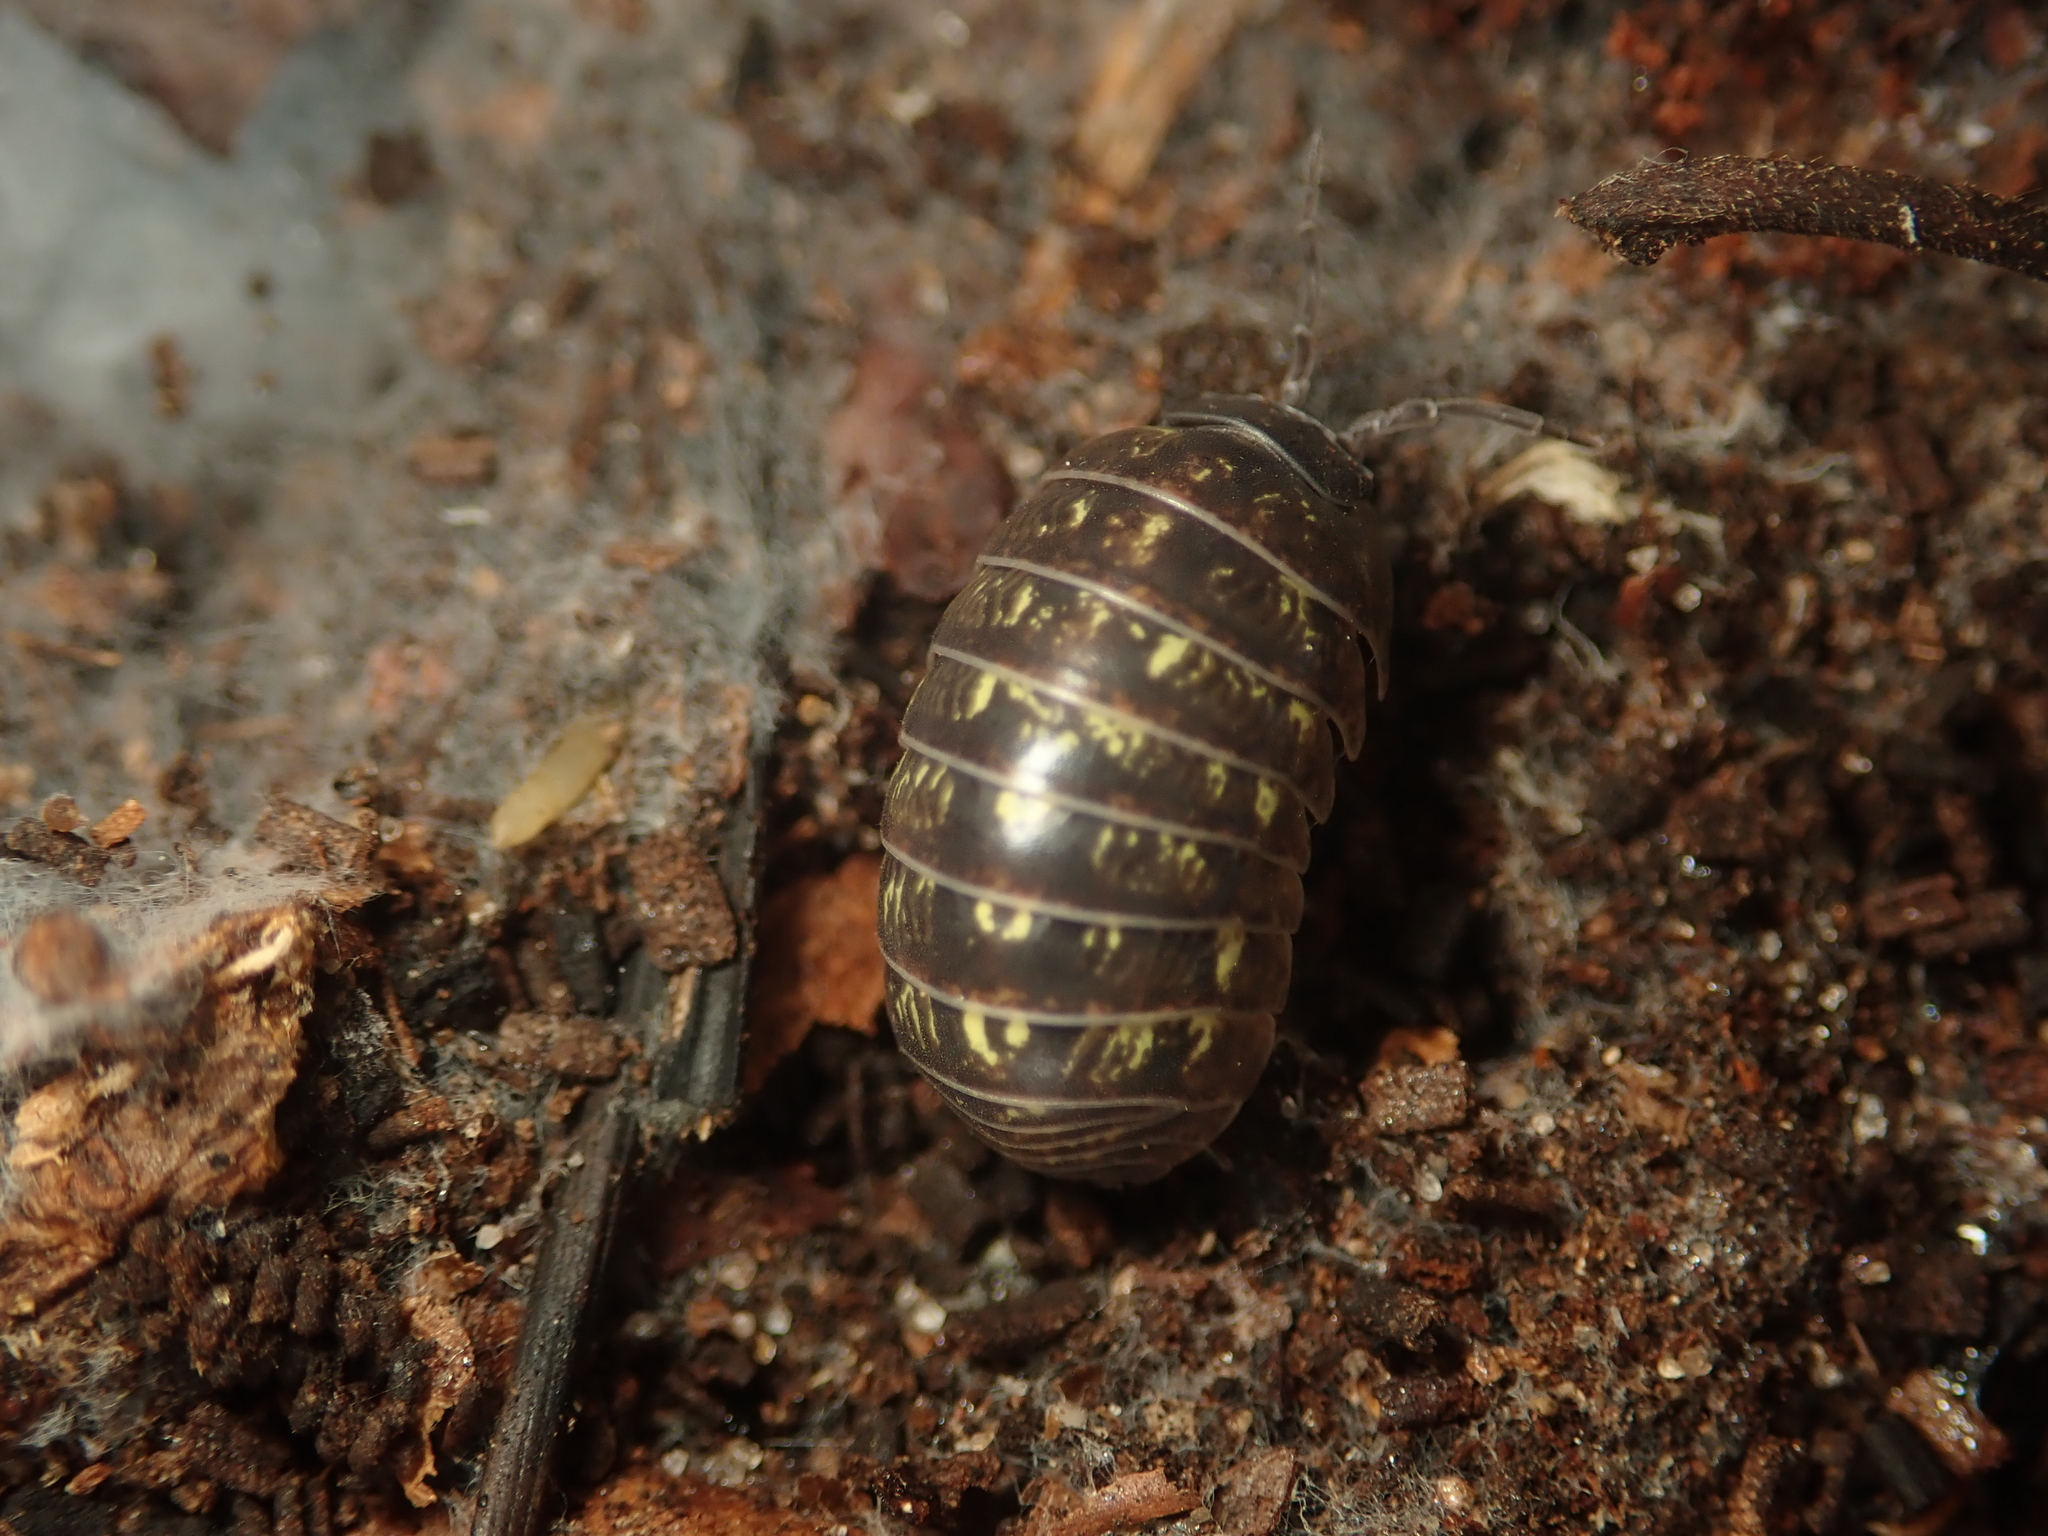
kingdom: Animalia
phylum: Arthropoda
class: Malacostraca
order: Isopoda
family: Armadillidiidae
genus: Armadillidium
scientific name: Armadillidium vulgare
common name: Common pill woodlouse
